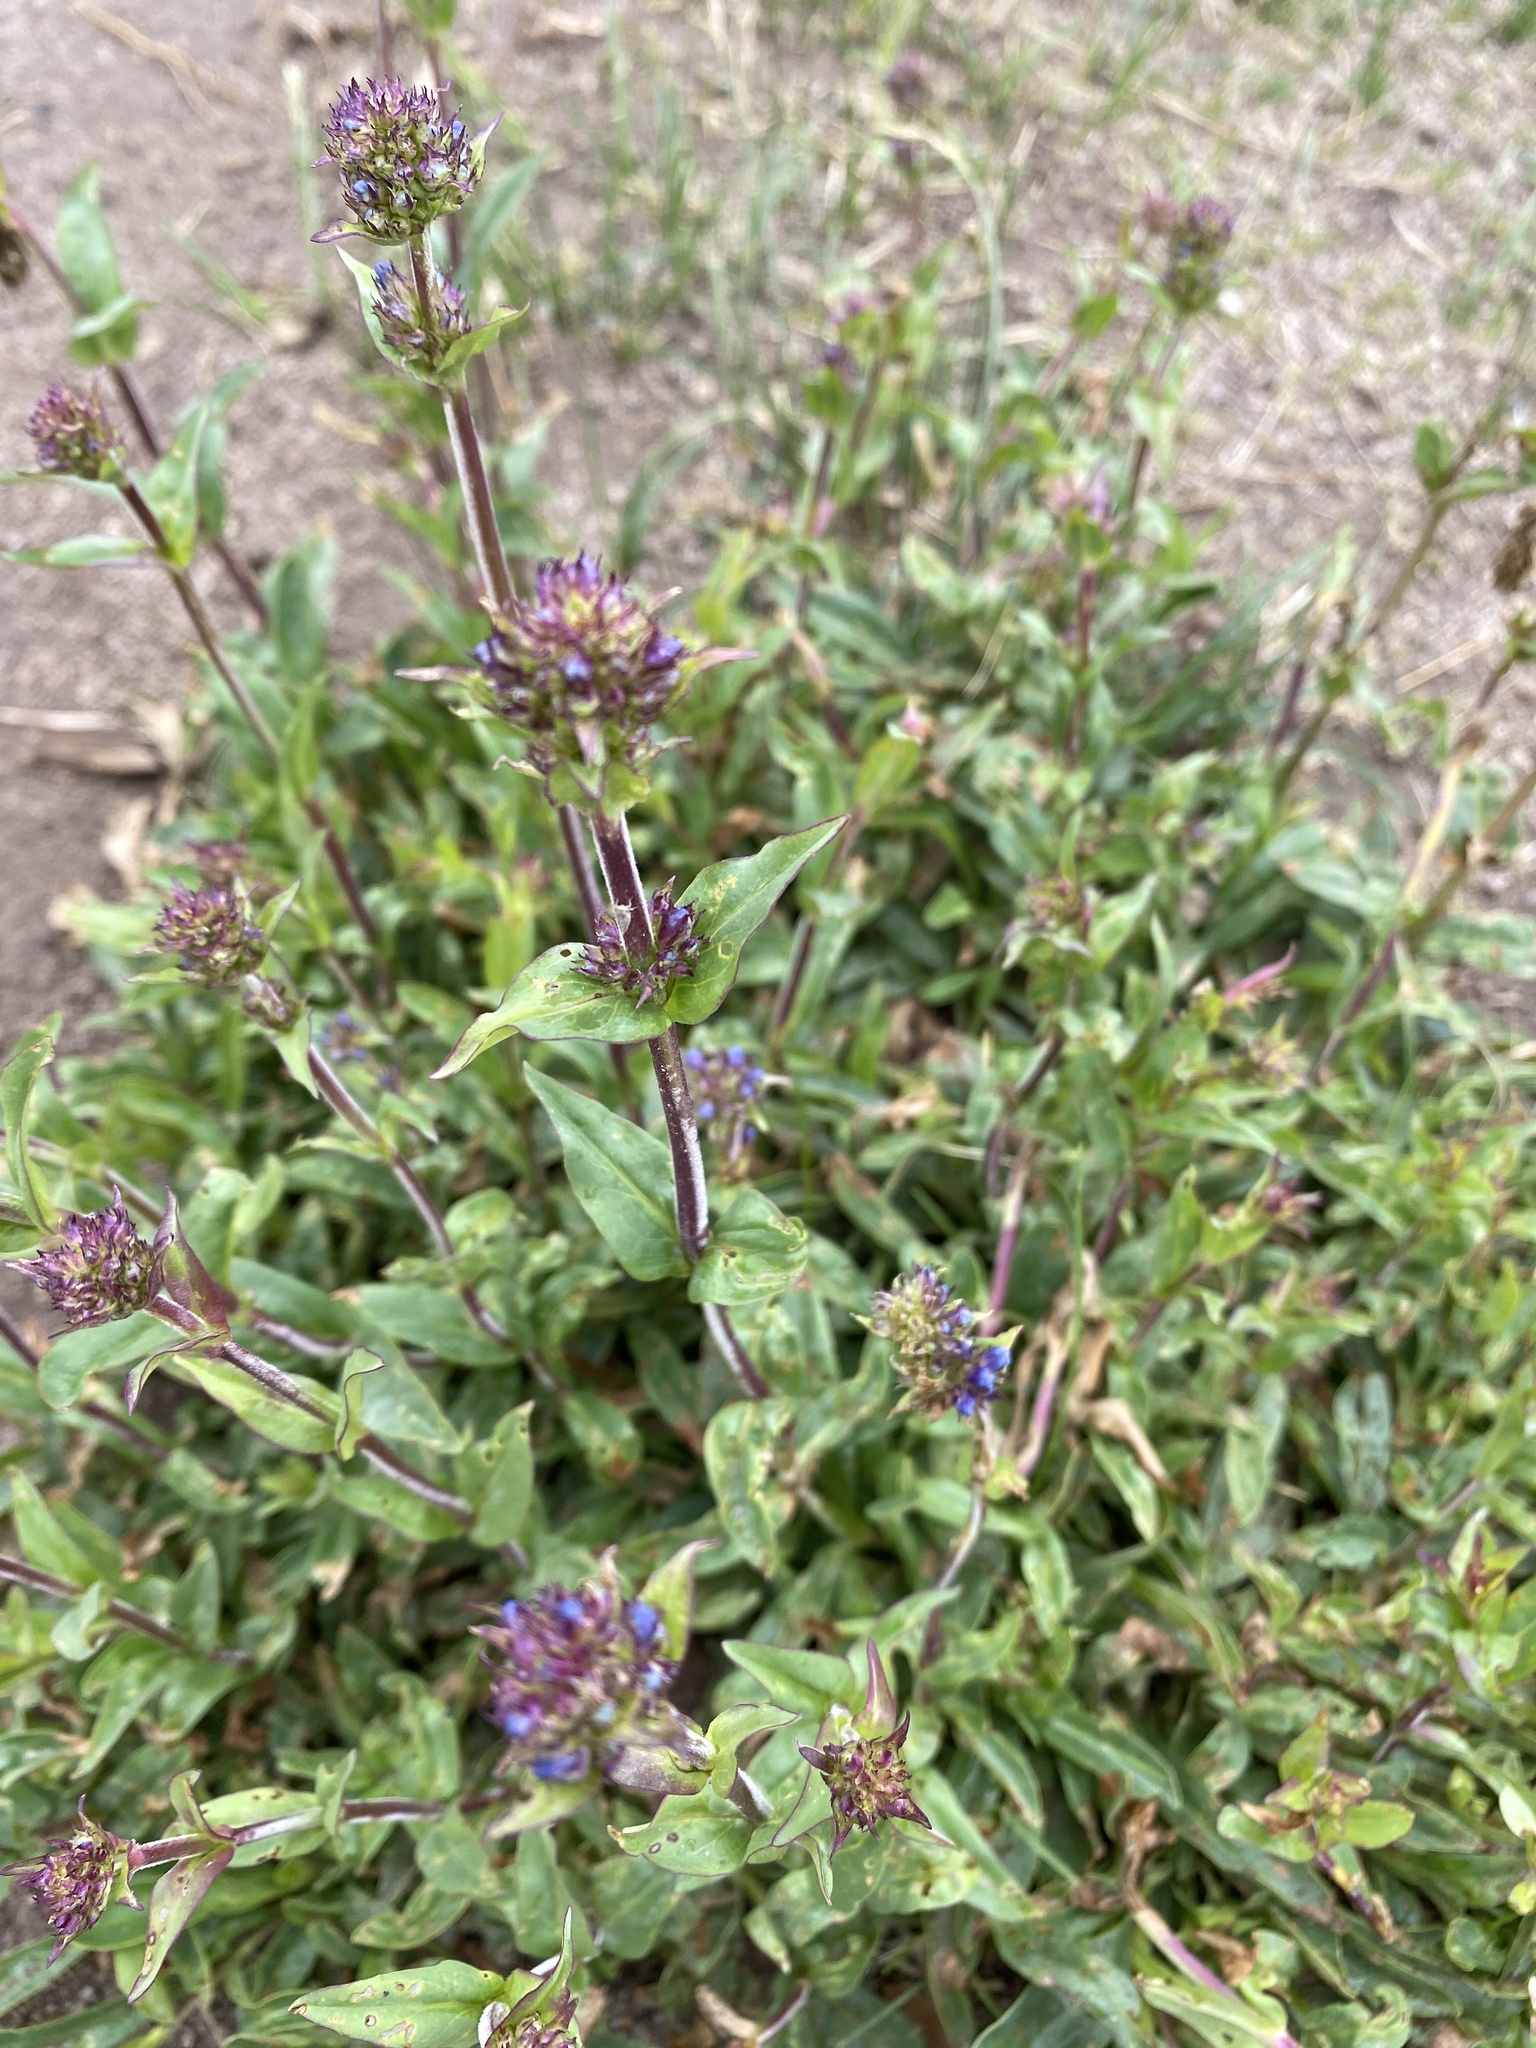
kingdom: Plantae
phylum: Tracheophyta
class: Magnoliopsida
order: Lamiales
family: Plantaginaceae
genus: Penstemon
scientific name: Penstemon rydbergii
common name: Rydberg's beardtongue
